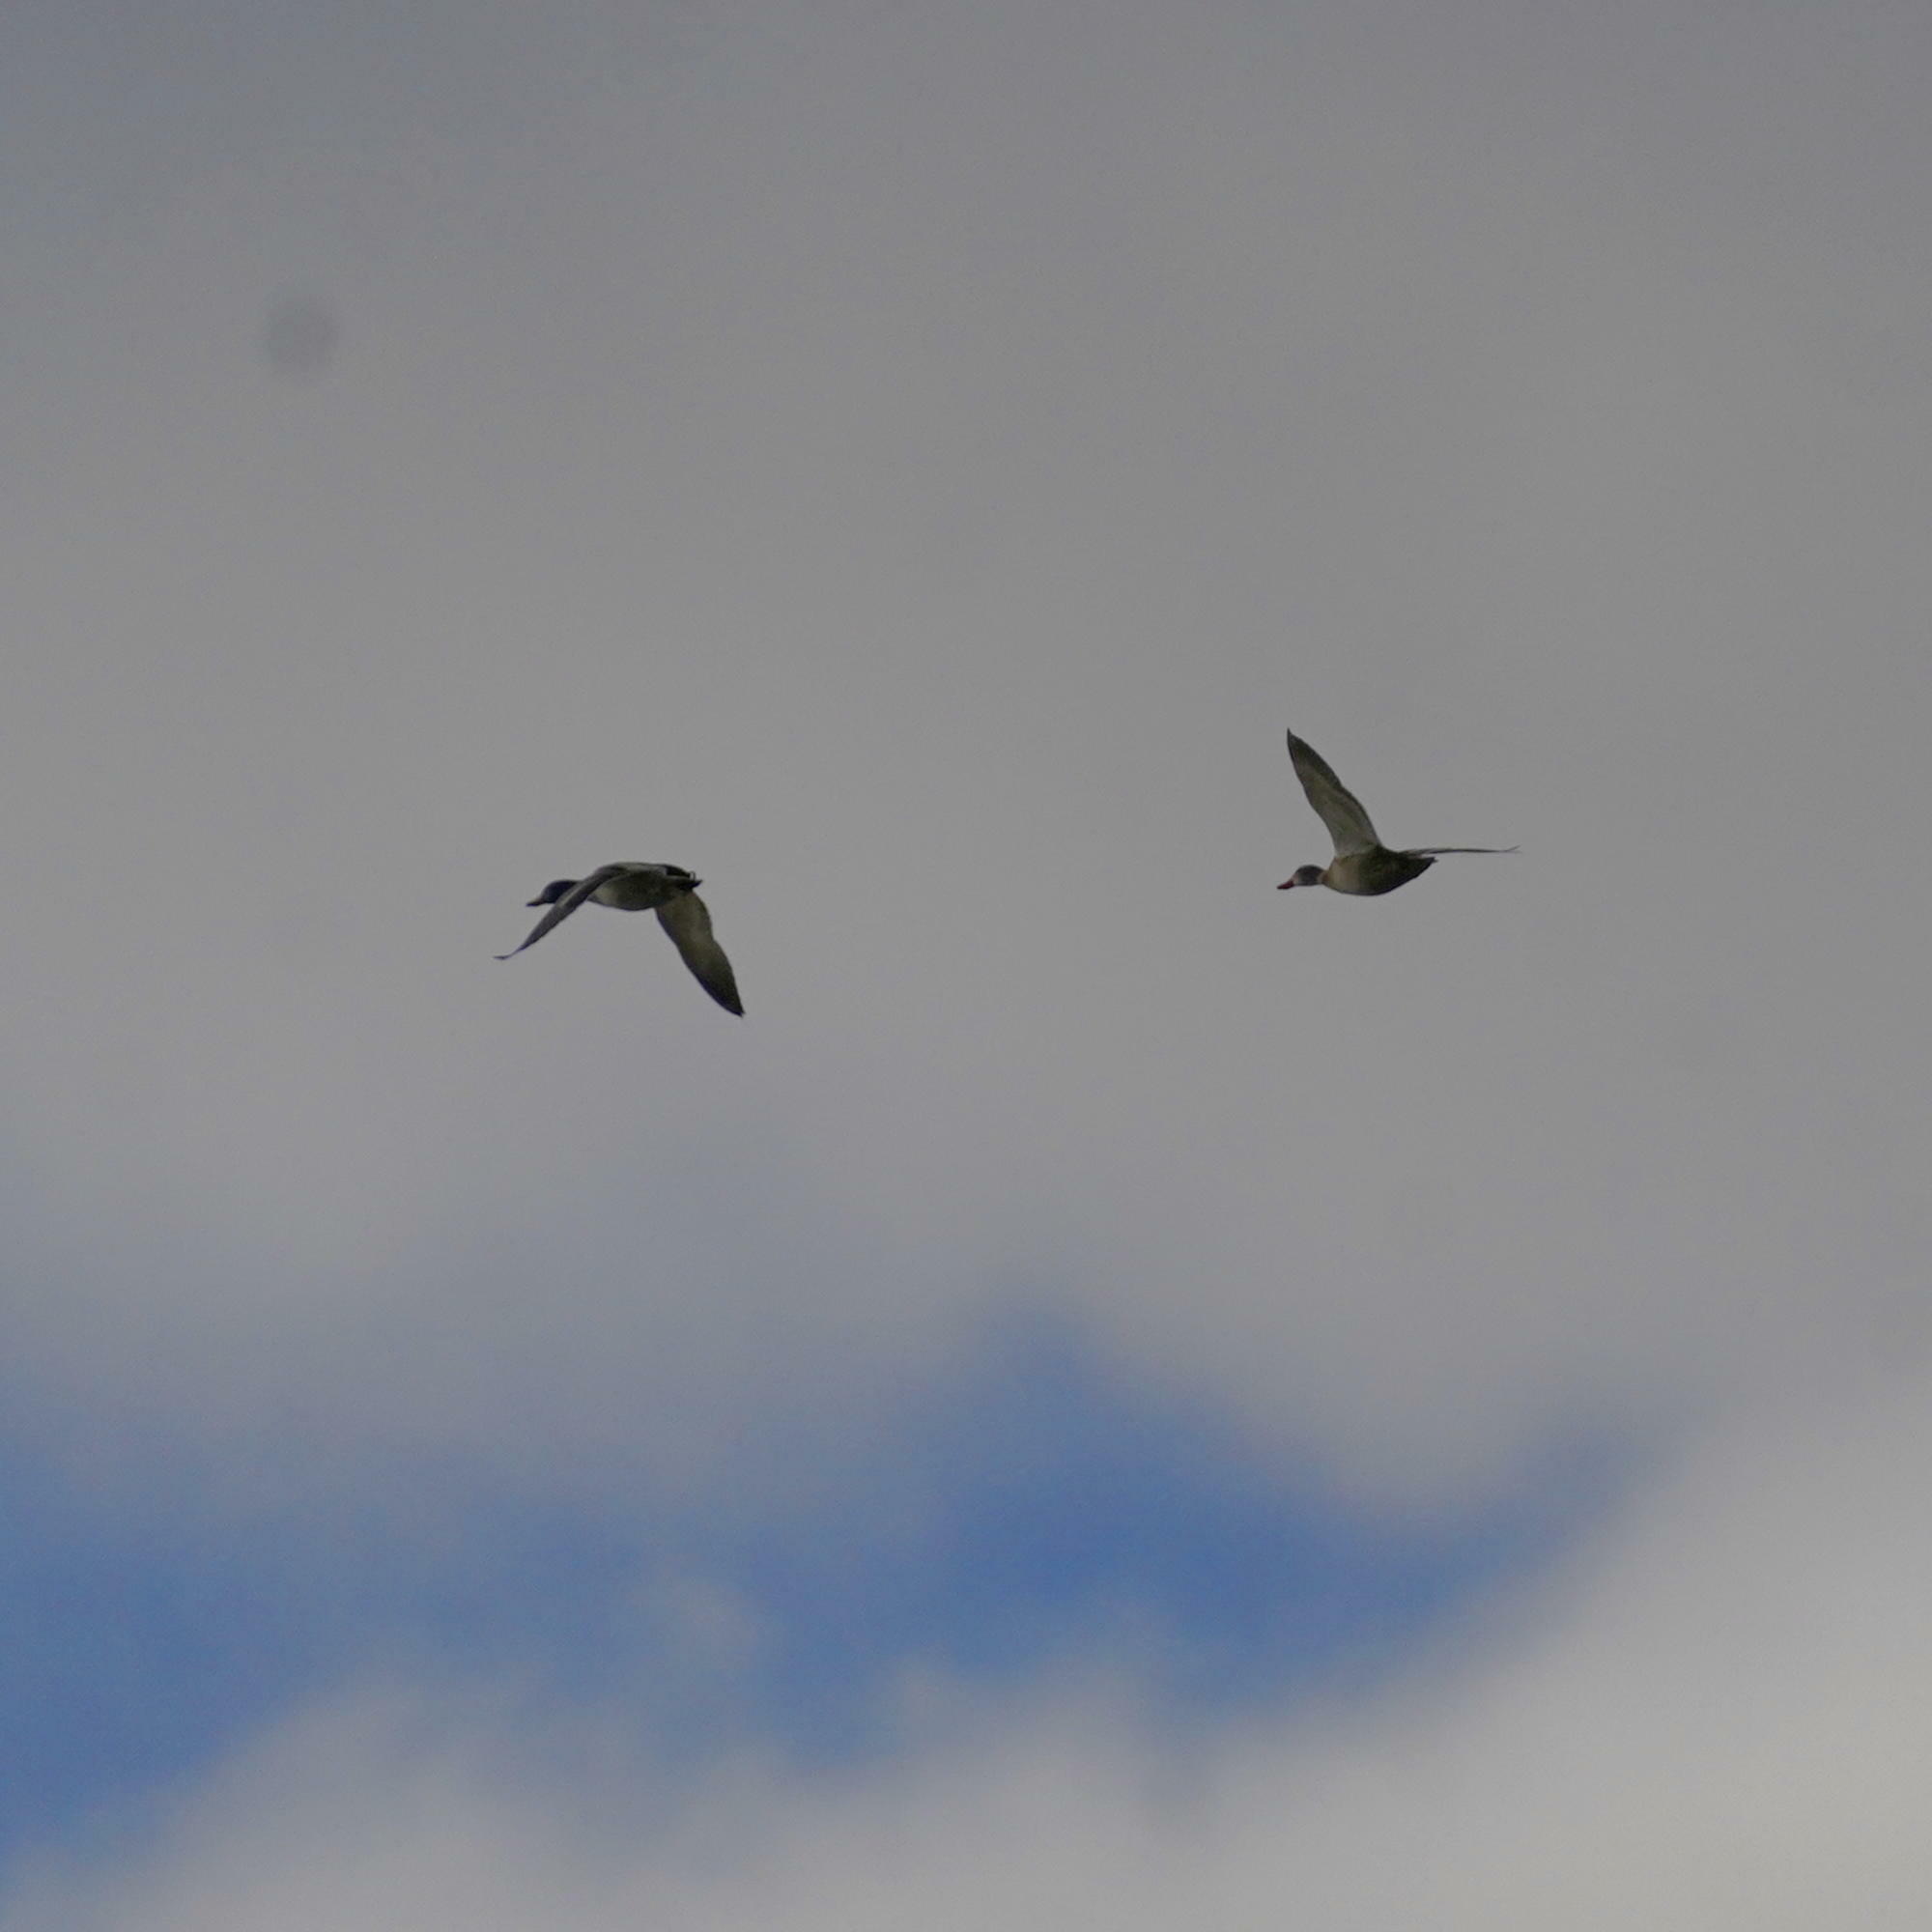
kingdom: Animalia
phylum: Chordata
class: Aves
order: Anseriformes
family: Anatidae
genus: Anas
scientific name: Anas platyrhynchos
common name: Mallard
